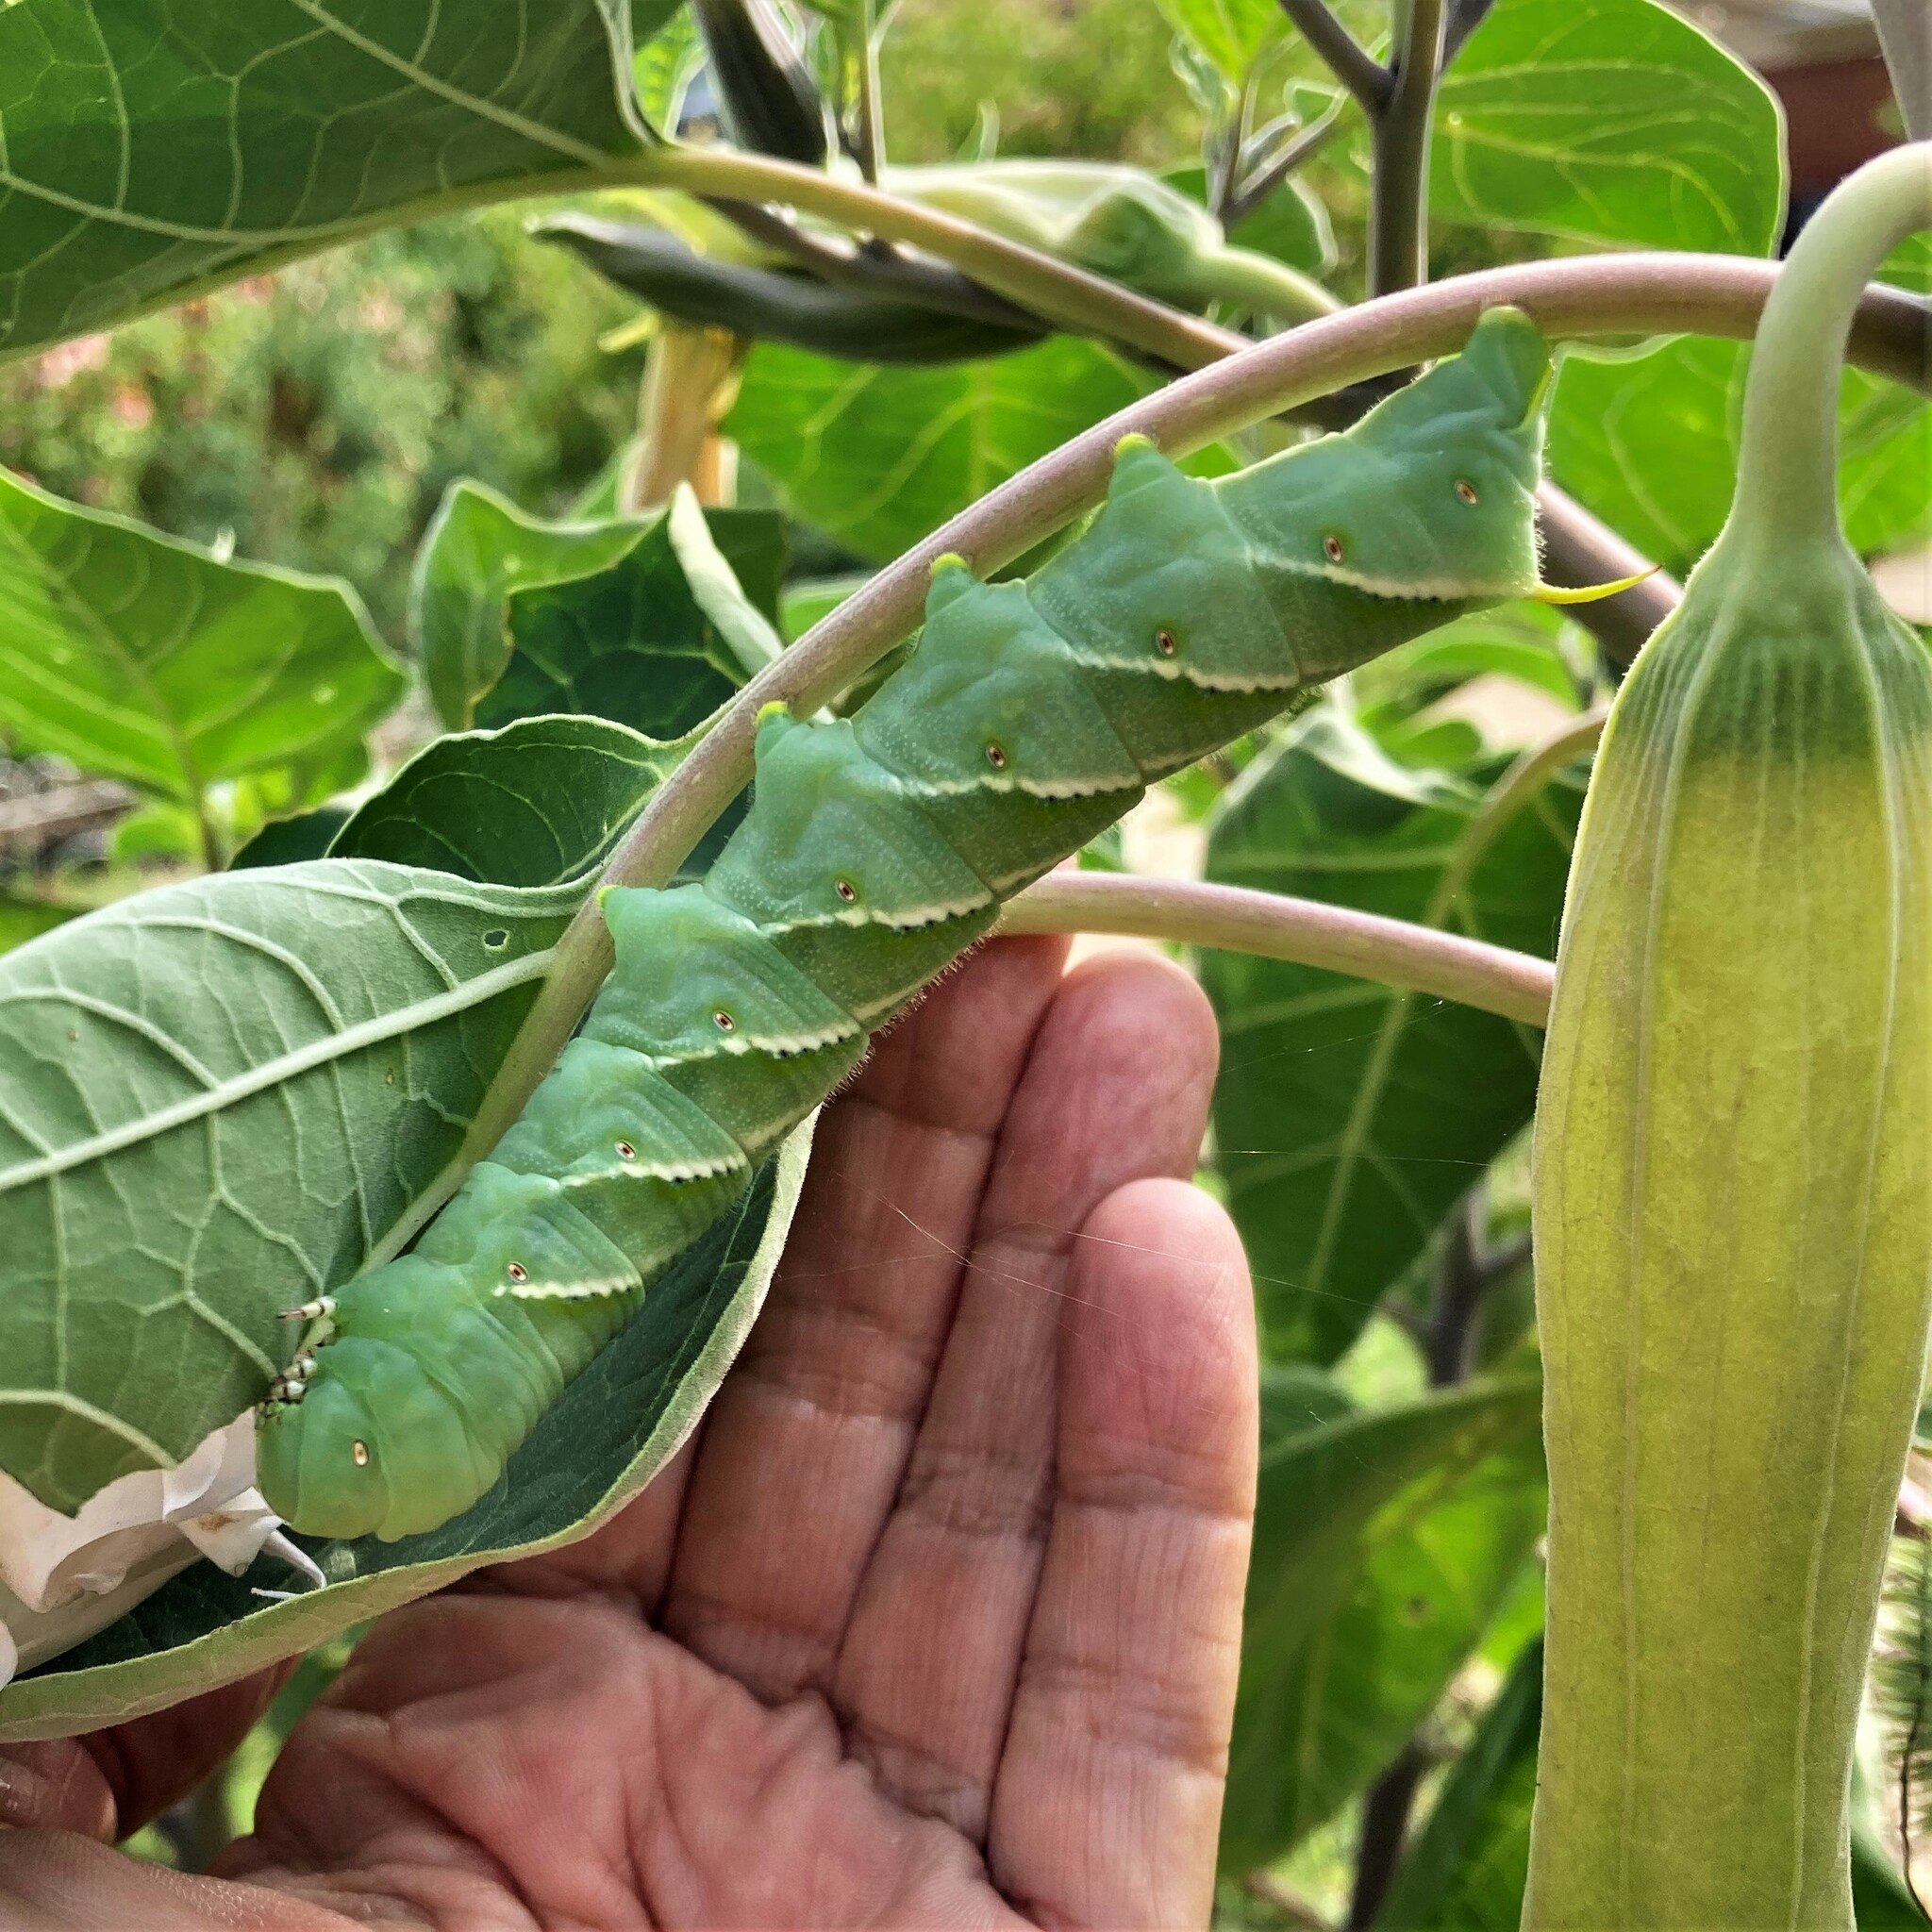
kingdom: Animalia
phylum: Arthropoda
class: Insecta
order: Lepidoptera
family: Sphingidae
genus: Manduca
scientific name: Manduca sexta
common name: Carolina sphinx
